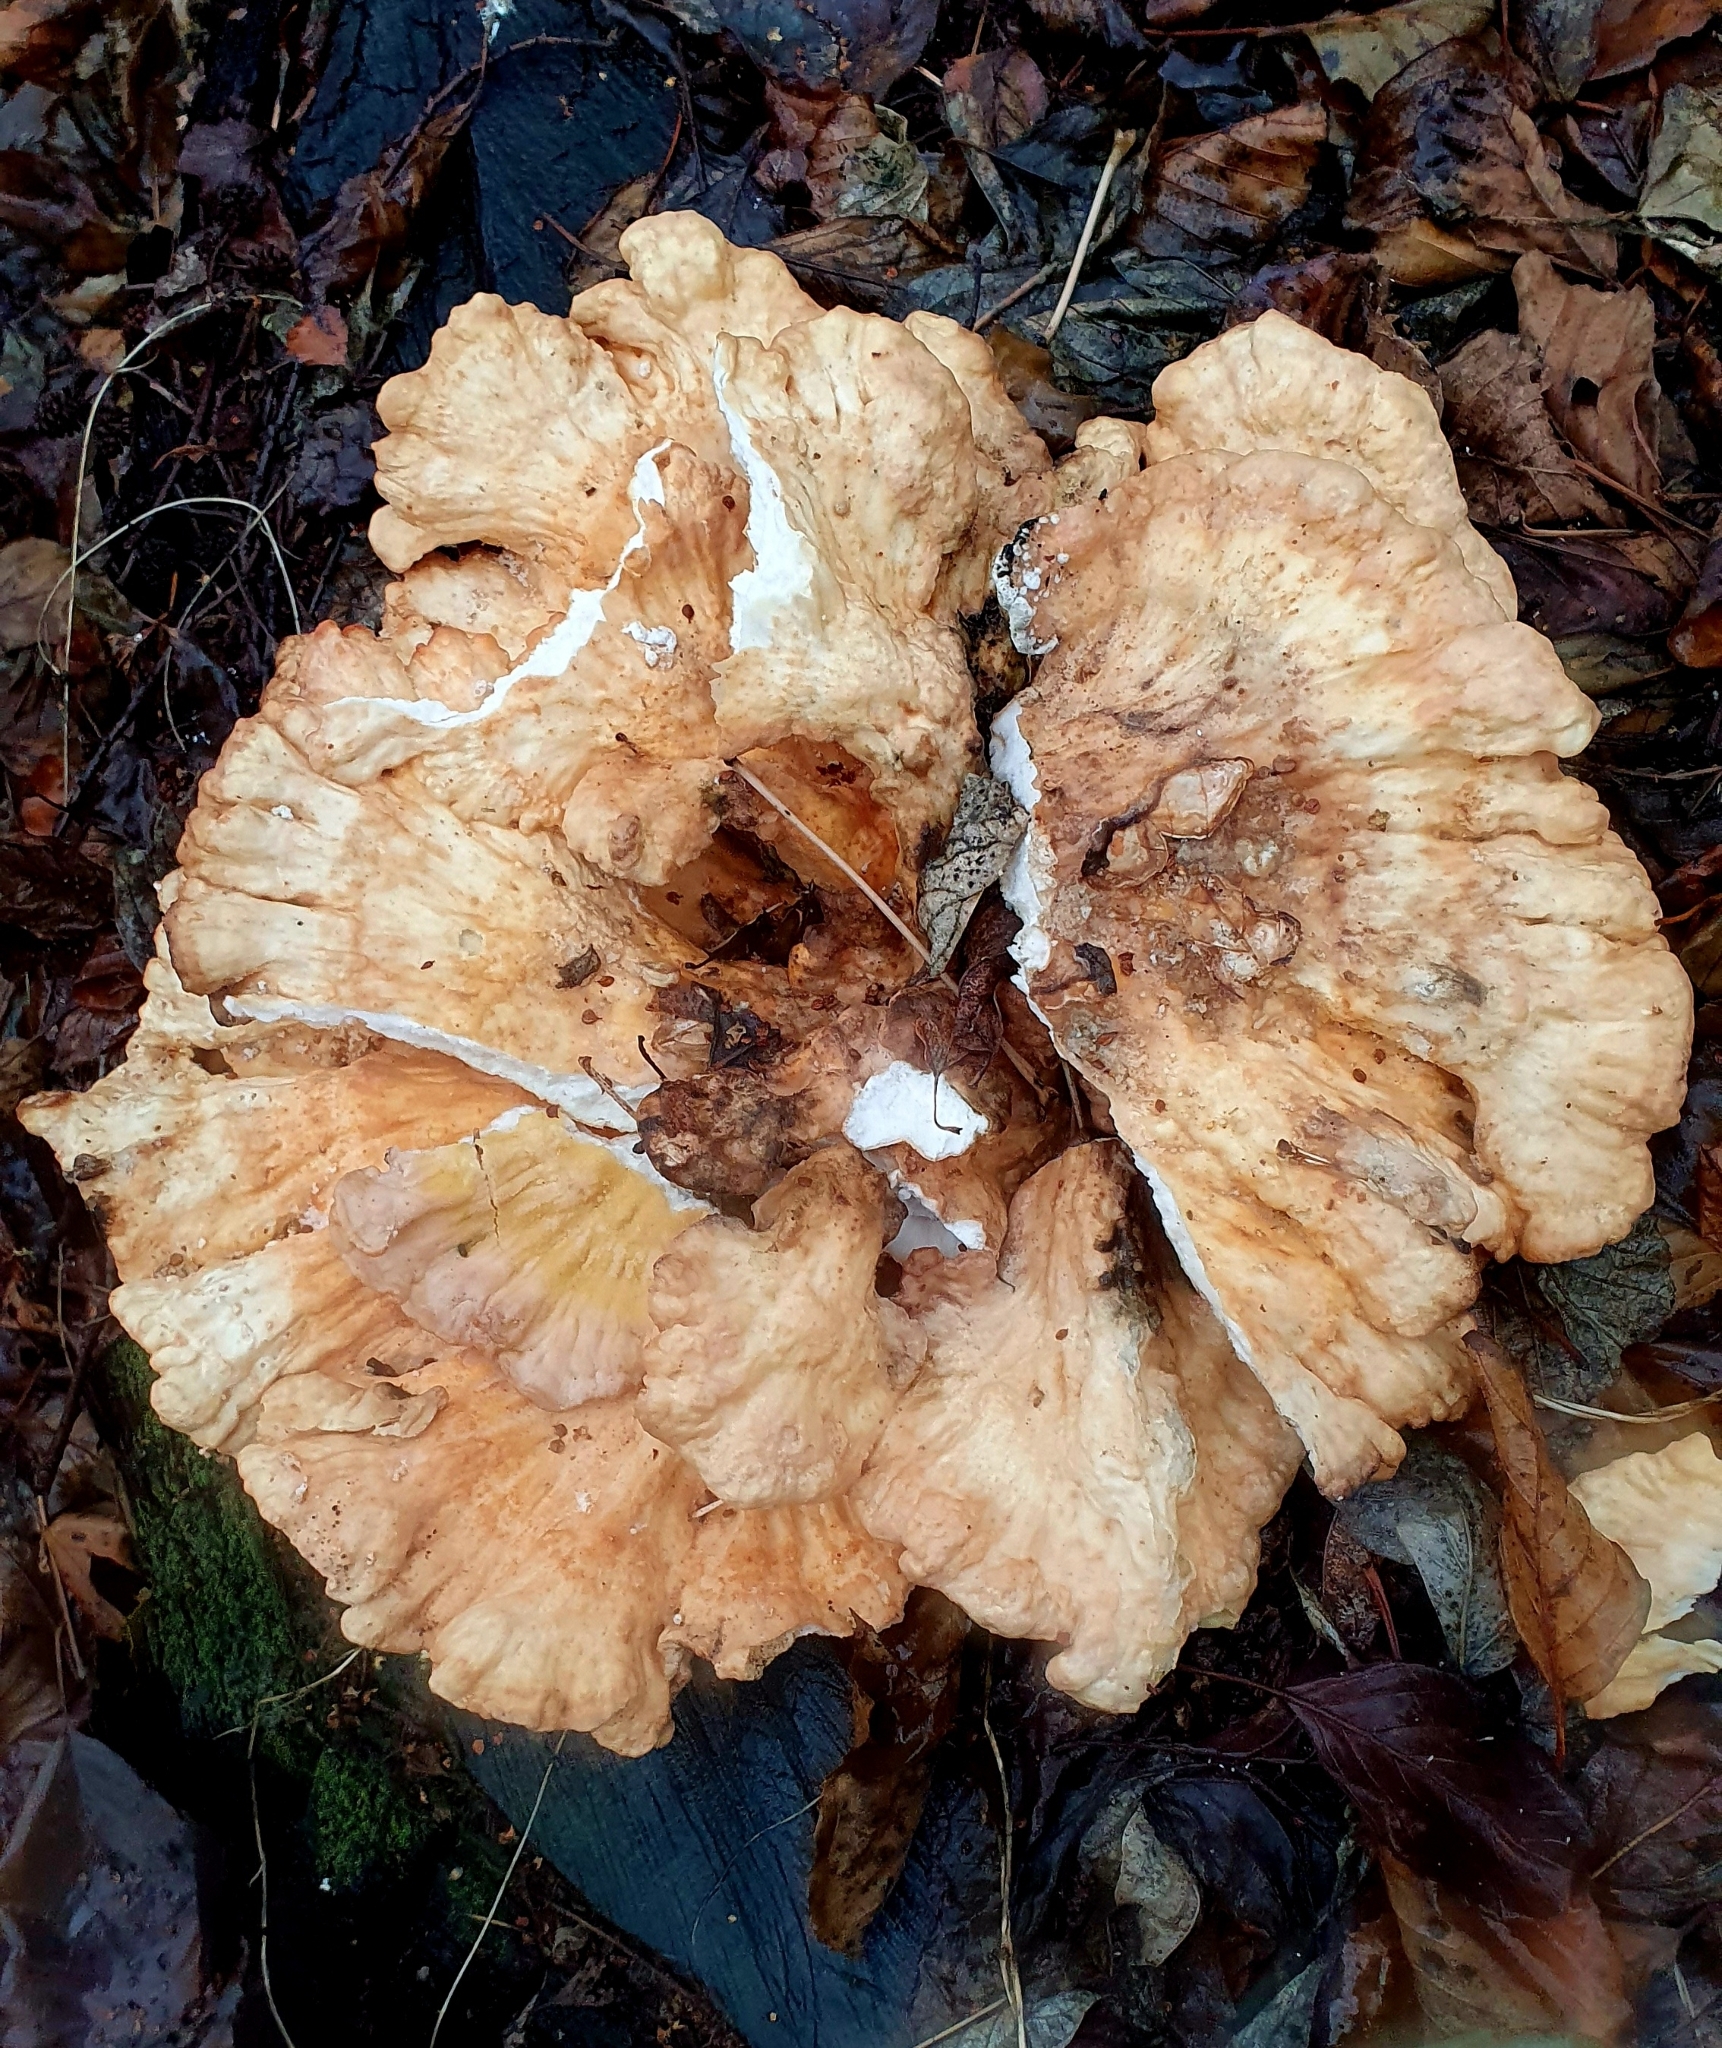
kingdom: Fungi
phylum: Basidiomycota
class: Agaricomycetes
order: Polyporales
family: Laetiporaceae
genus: Laetiporus
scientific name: Laetiporus sulphureus
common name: Chicken of the woods
